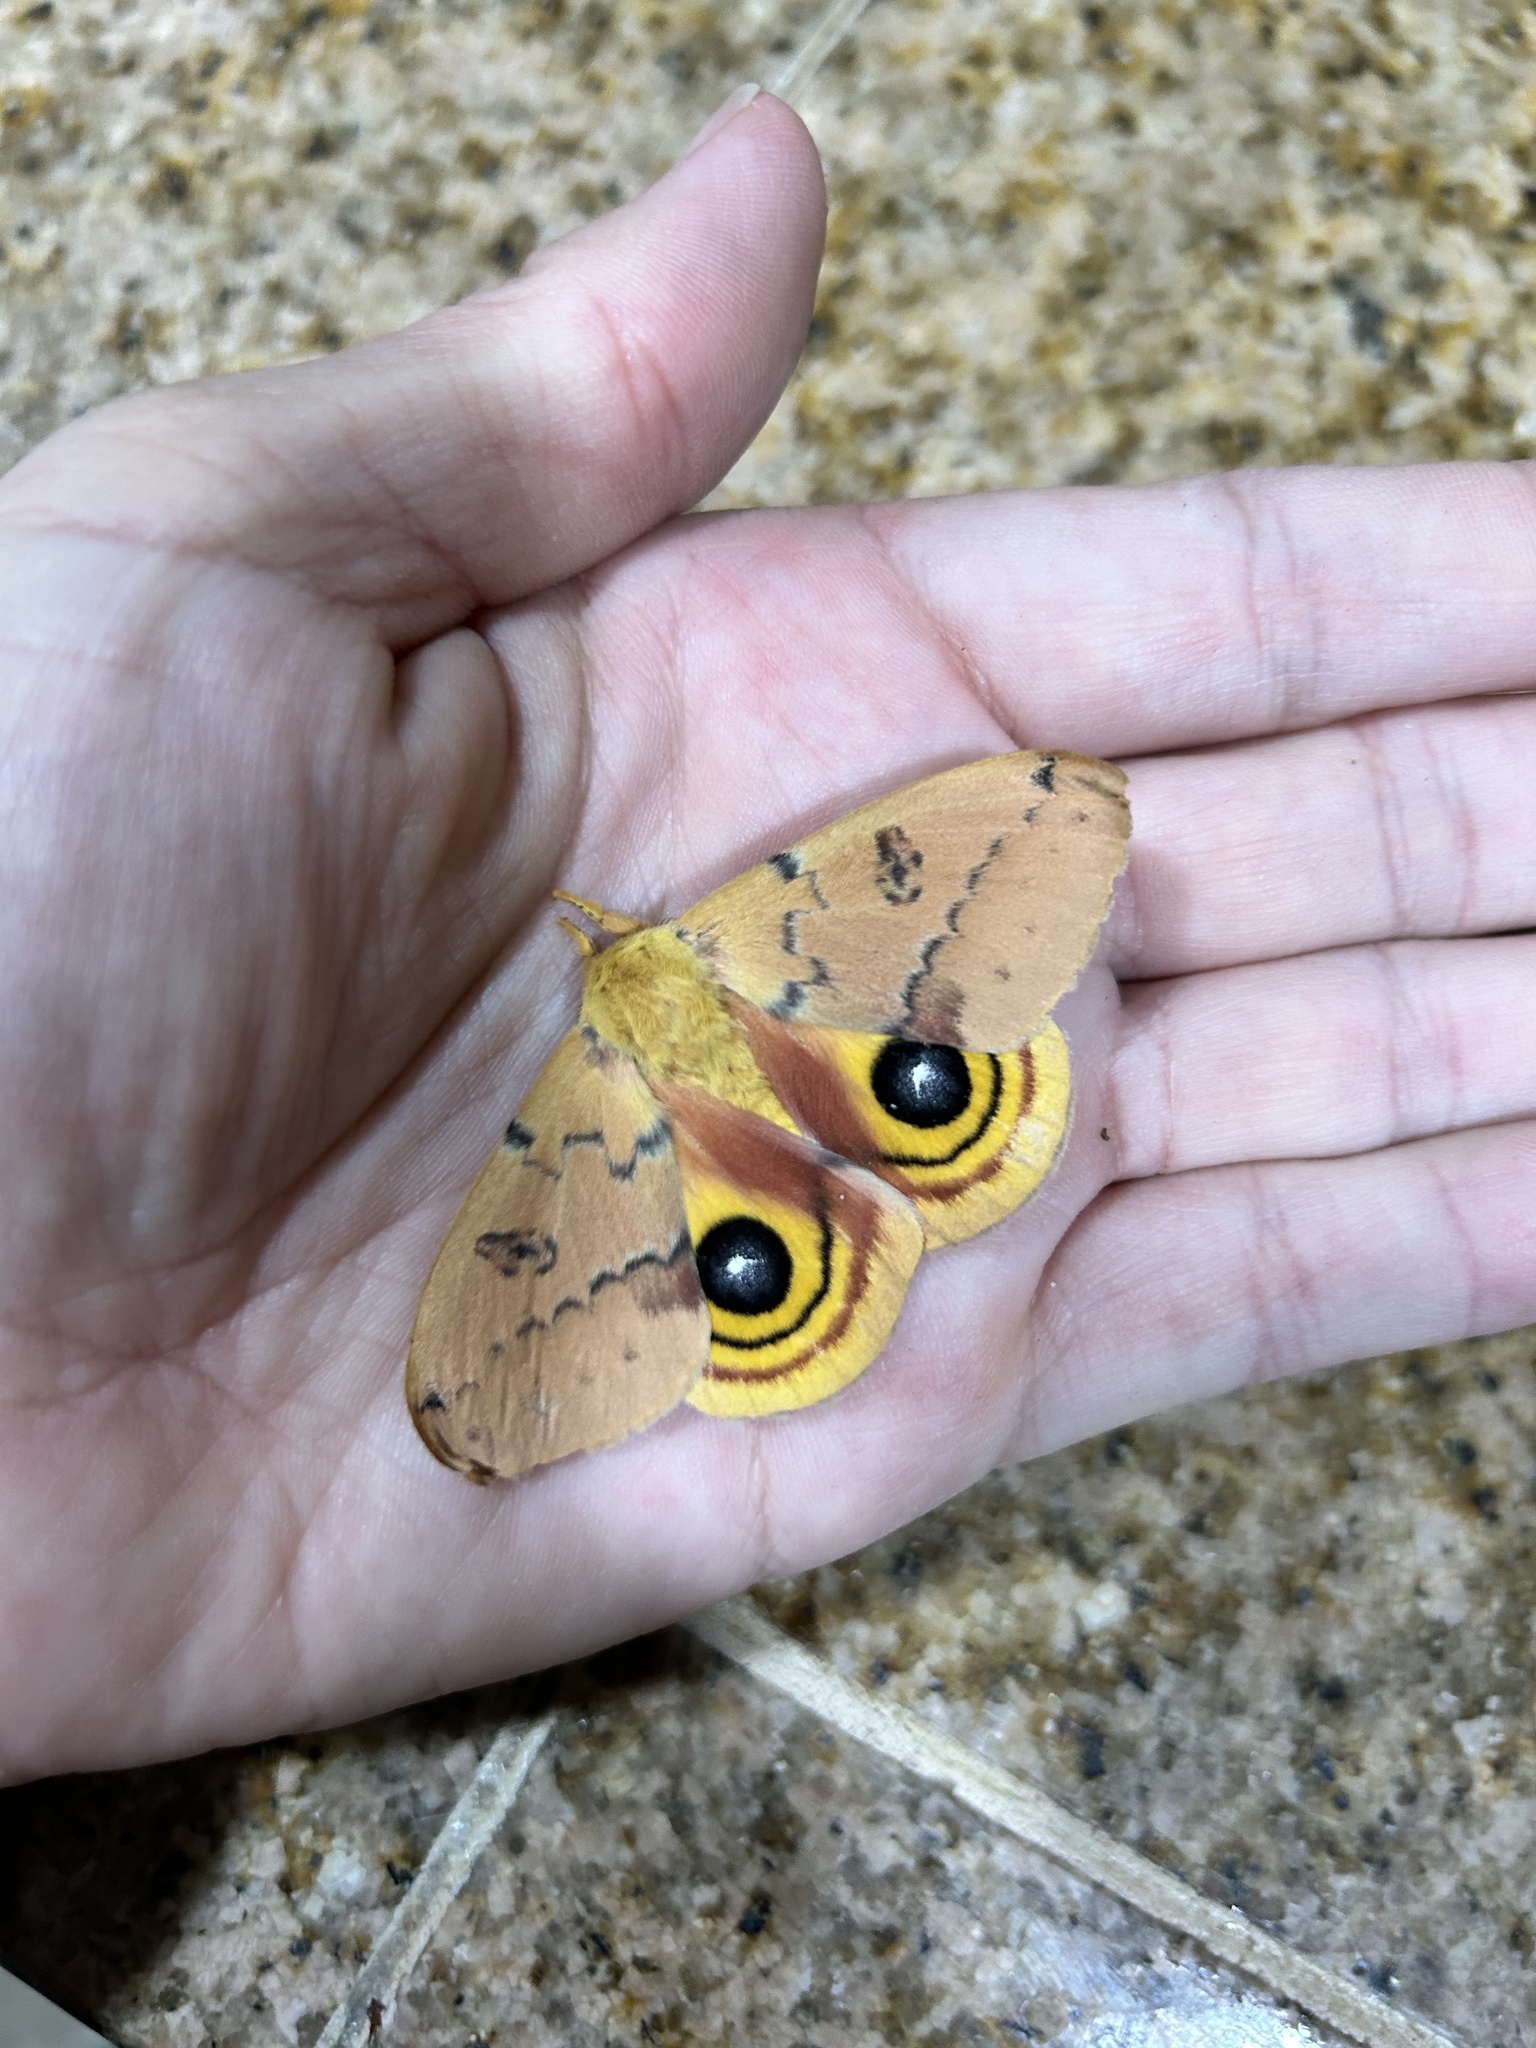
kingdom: Animalia
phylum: Arthropoda
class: Insecta
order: Lepidoptera
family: Saturniidae
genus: Automeris
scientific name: Automeris io
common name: Io moth
